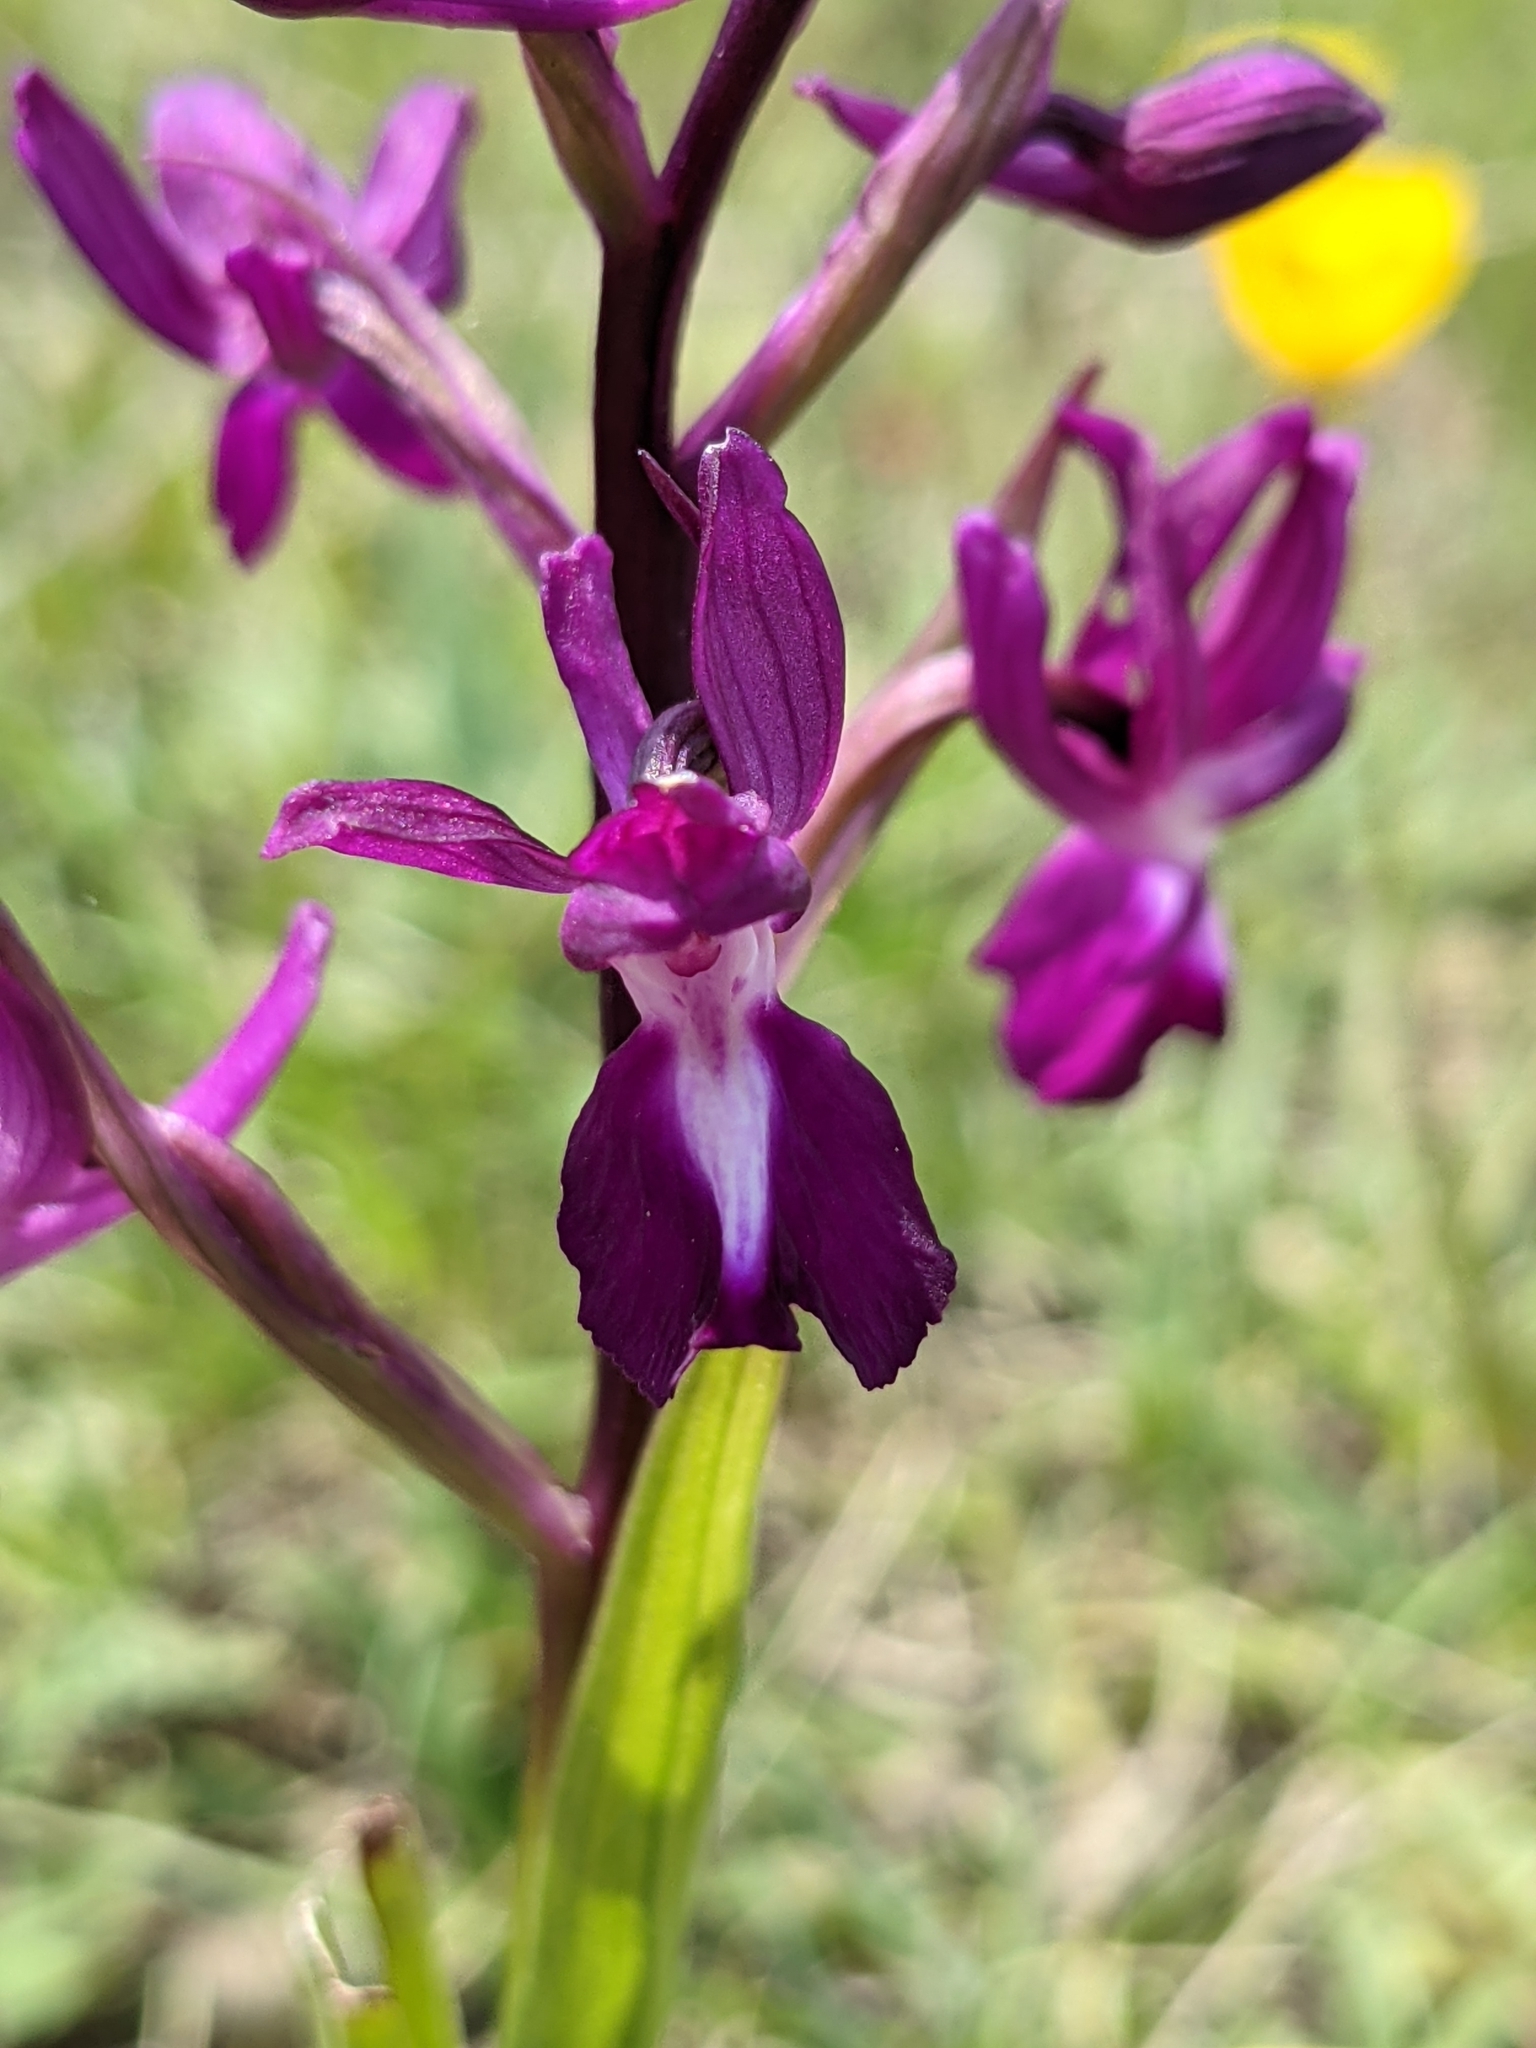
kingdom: Plantae
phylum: Tracheophyta
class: Liliopsida
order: Asparagales
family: Orchidaceae
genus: Anacamptis
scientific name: Anacamptis laxiflora
